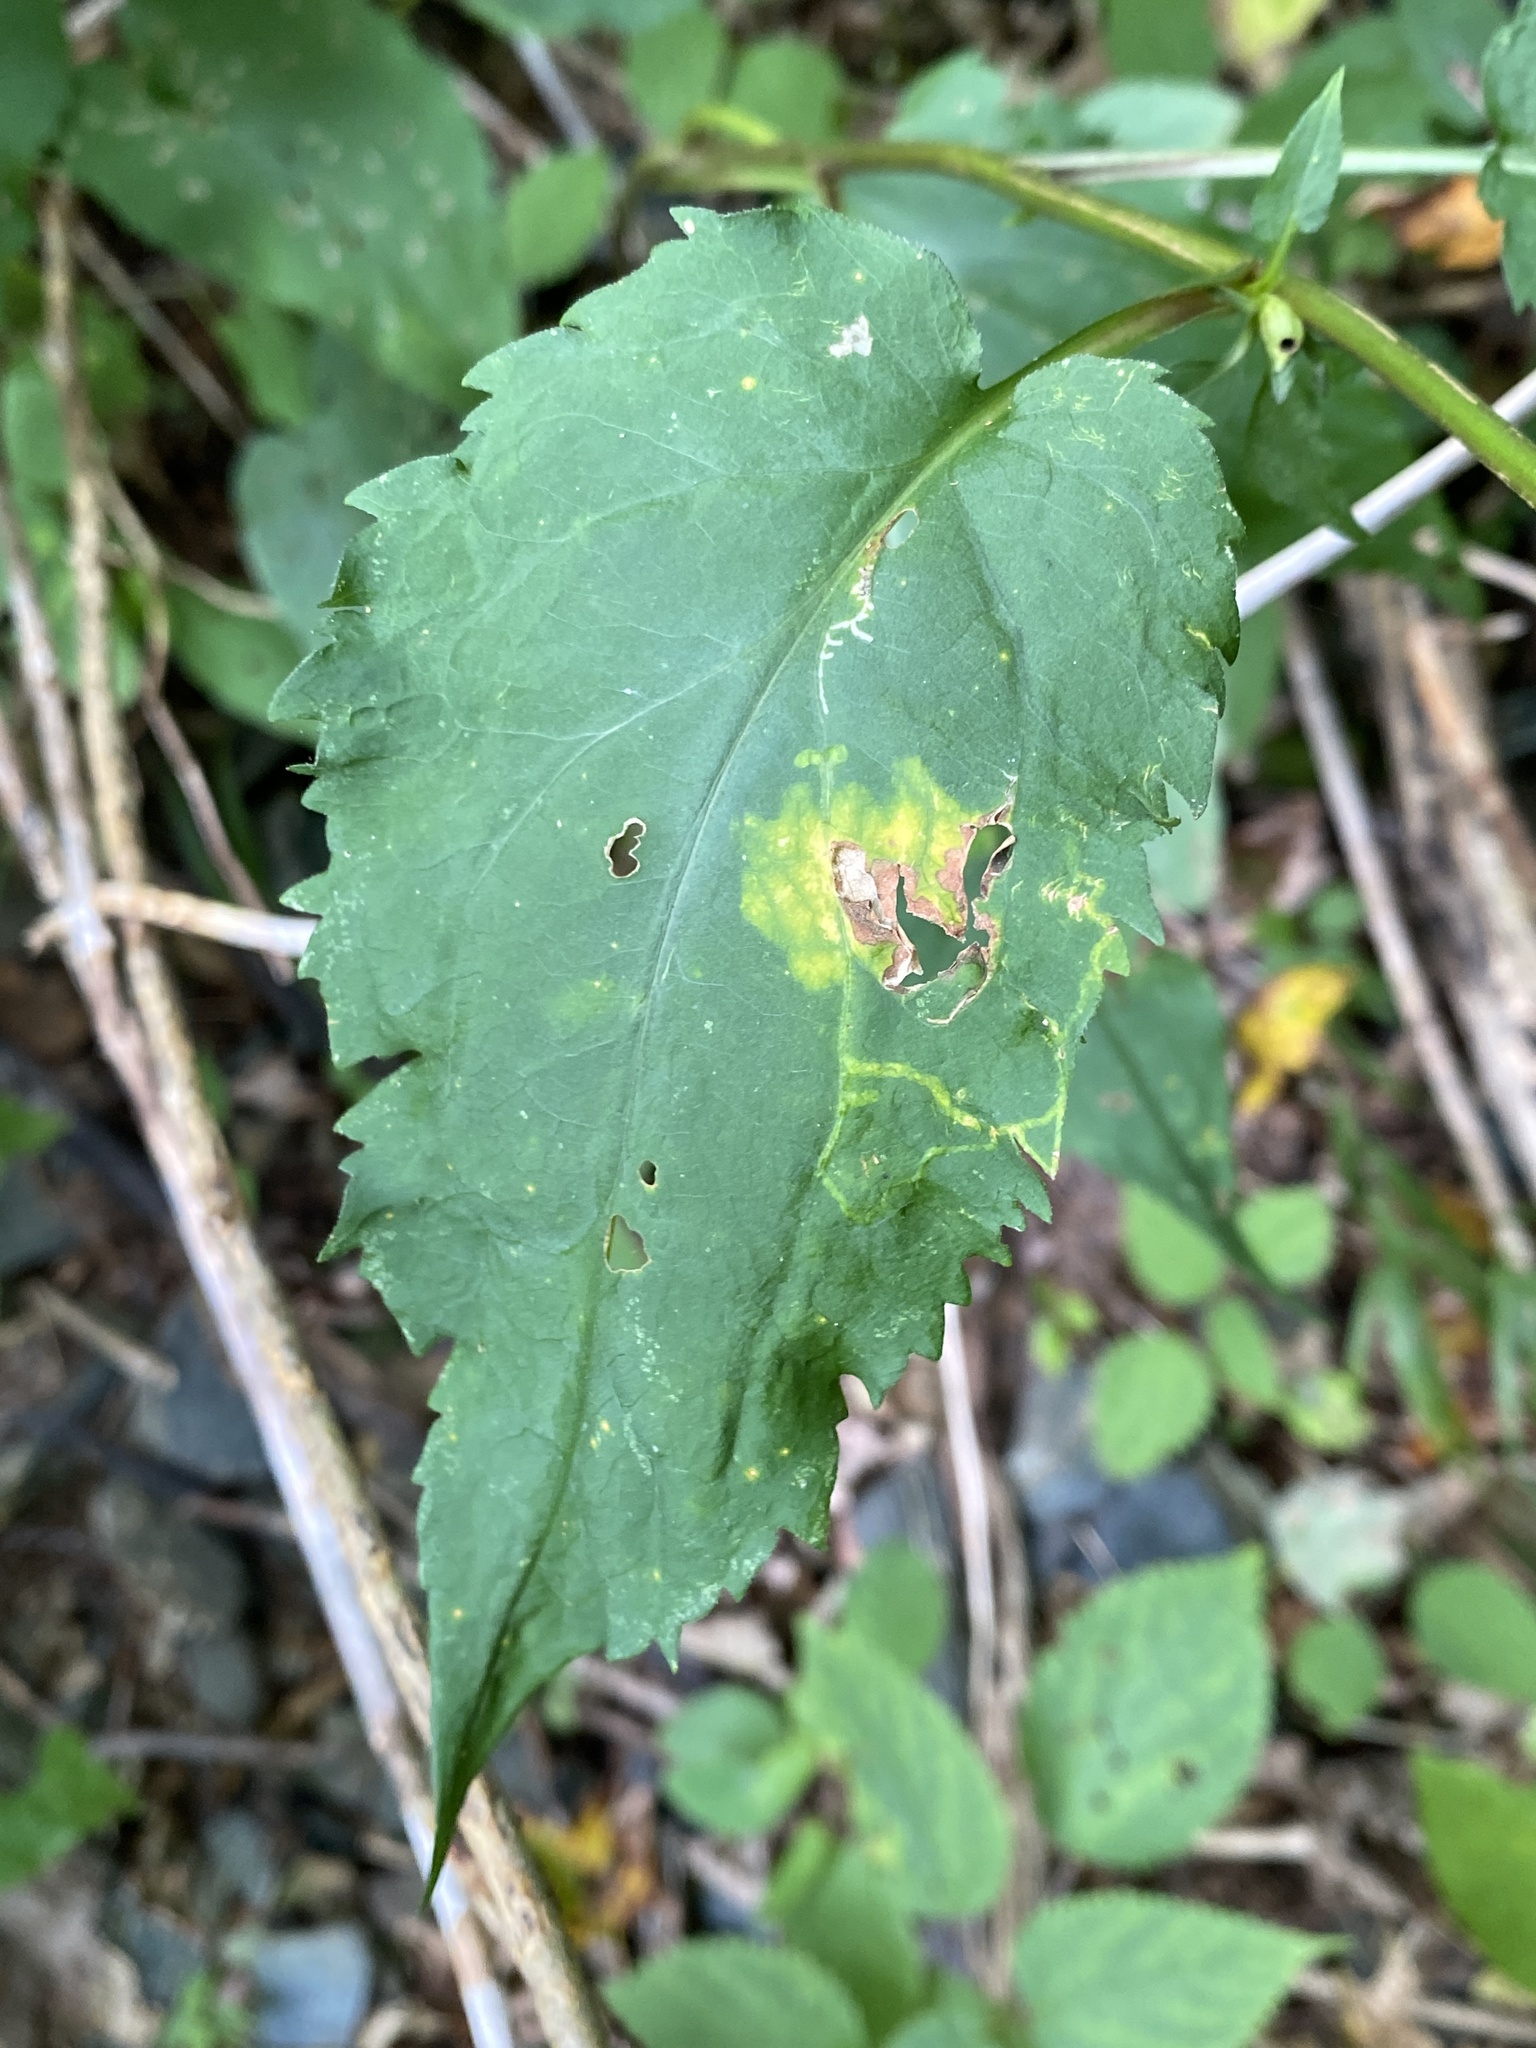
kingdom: Plantae
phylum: Tracheophyta
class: Magnoliopsida
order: Asterales
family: Asteraceae
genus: Symphyotrichum
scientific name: Symphyotrichum cordifolium
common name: Beeweed
